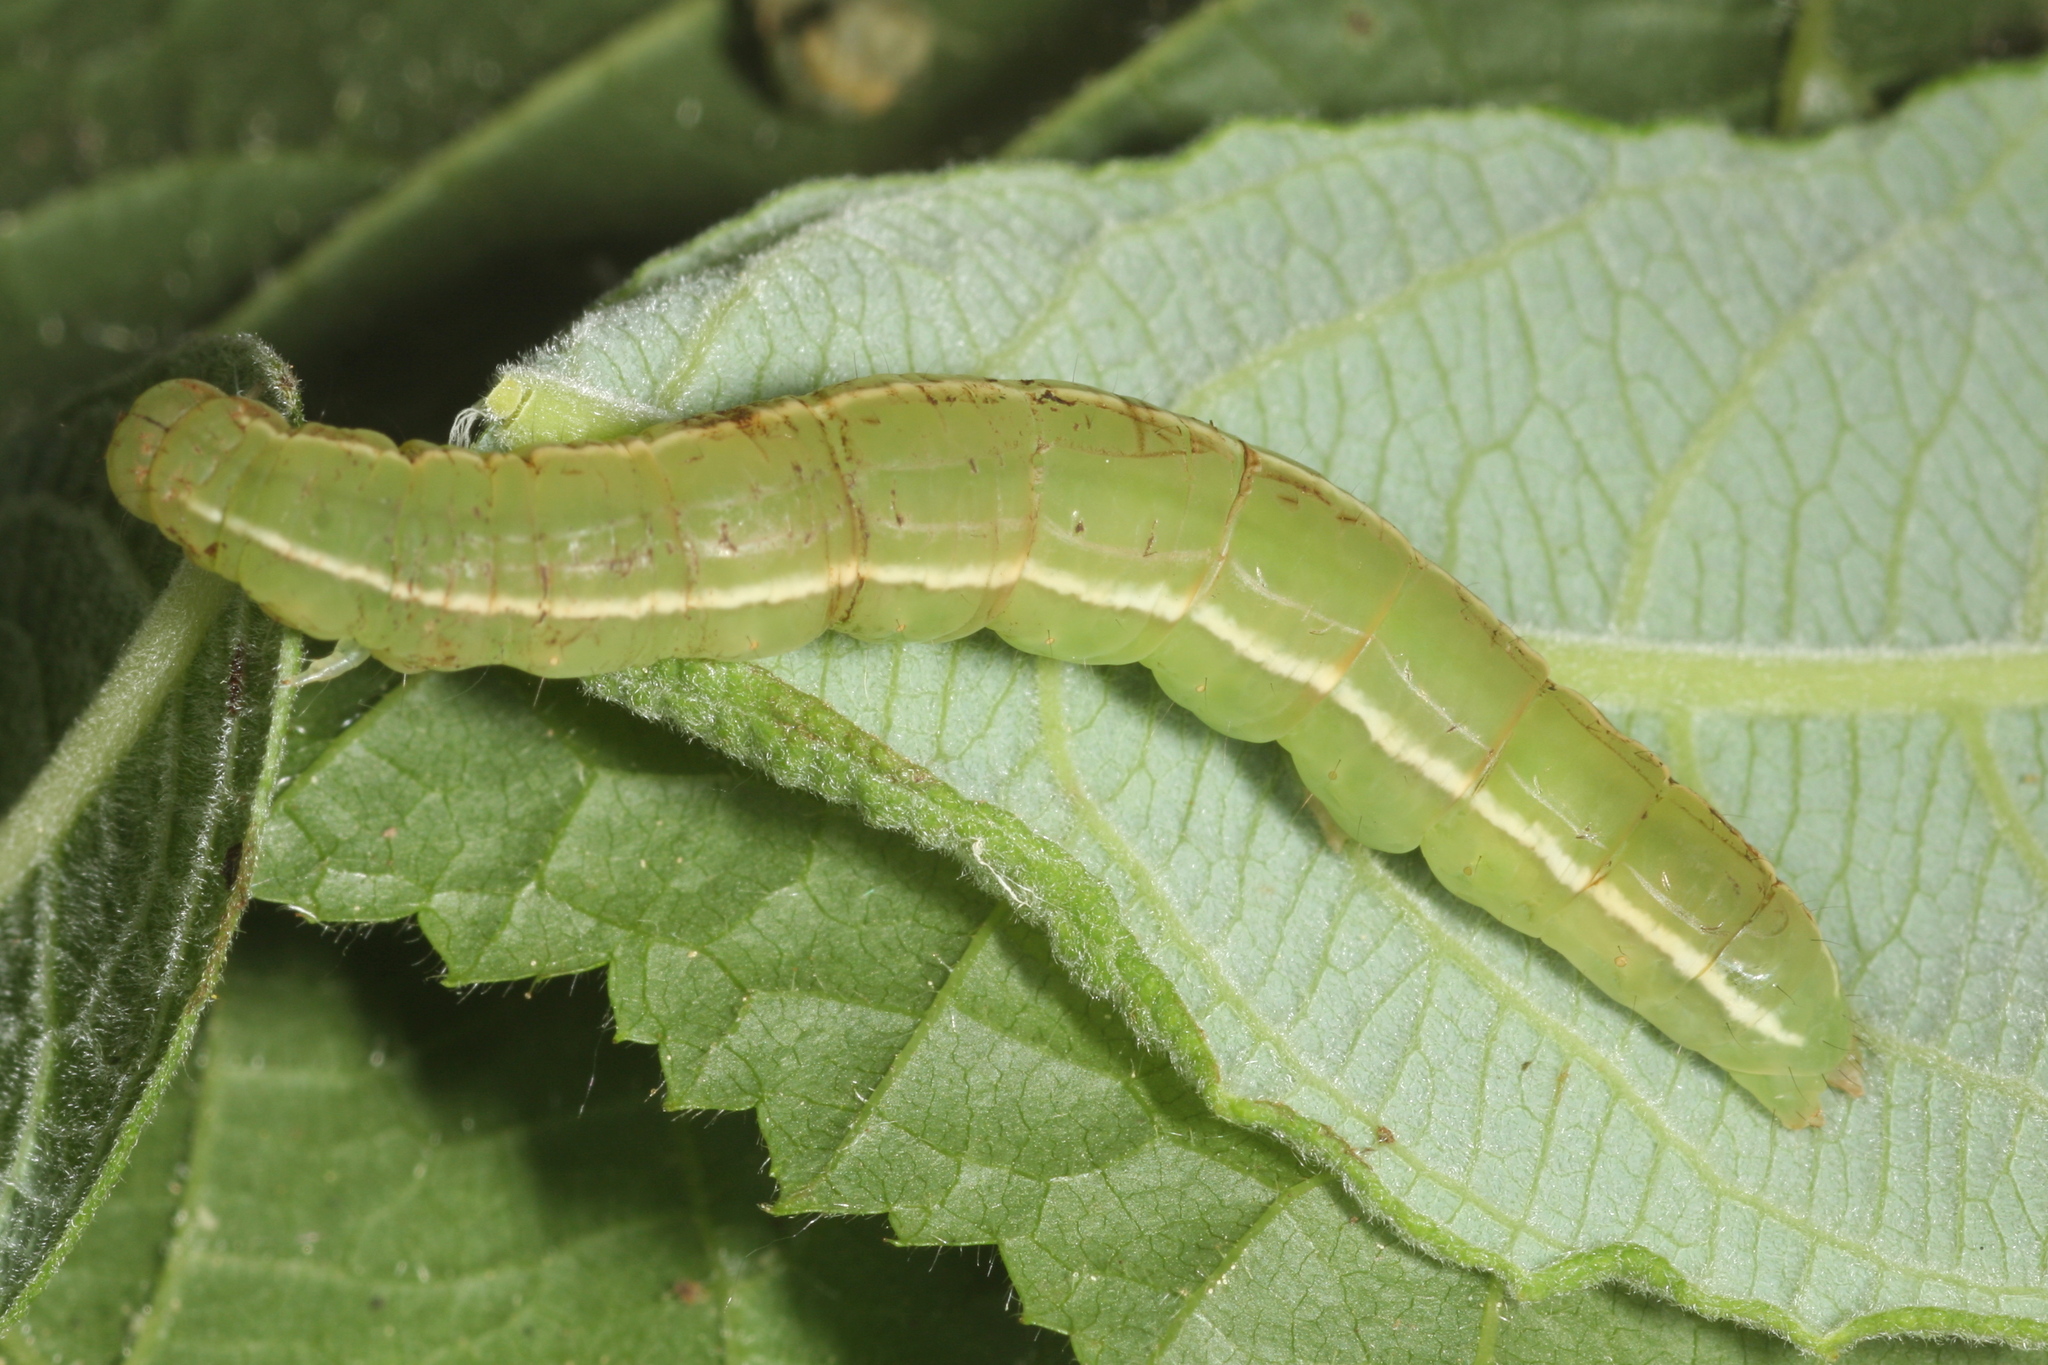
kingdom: Animalia
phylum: Arthropoda
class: Insecta
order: Lepidoptera
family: Erebidae
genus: Scoliopteryx
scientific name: Scoliopteryx libatrix
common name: Herald
